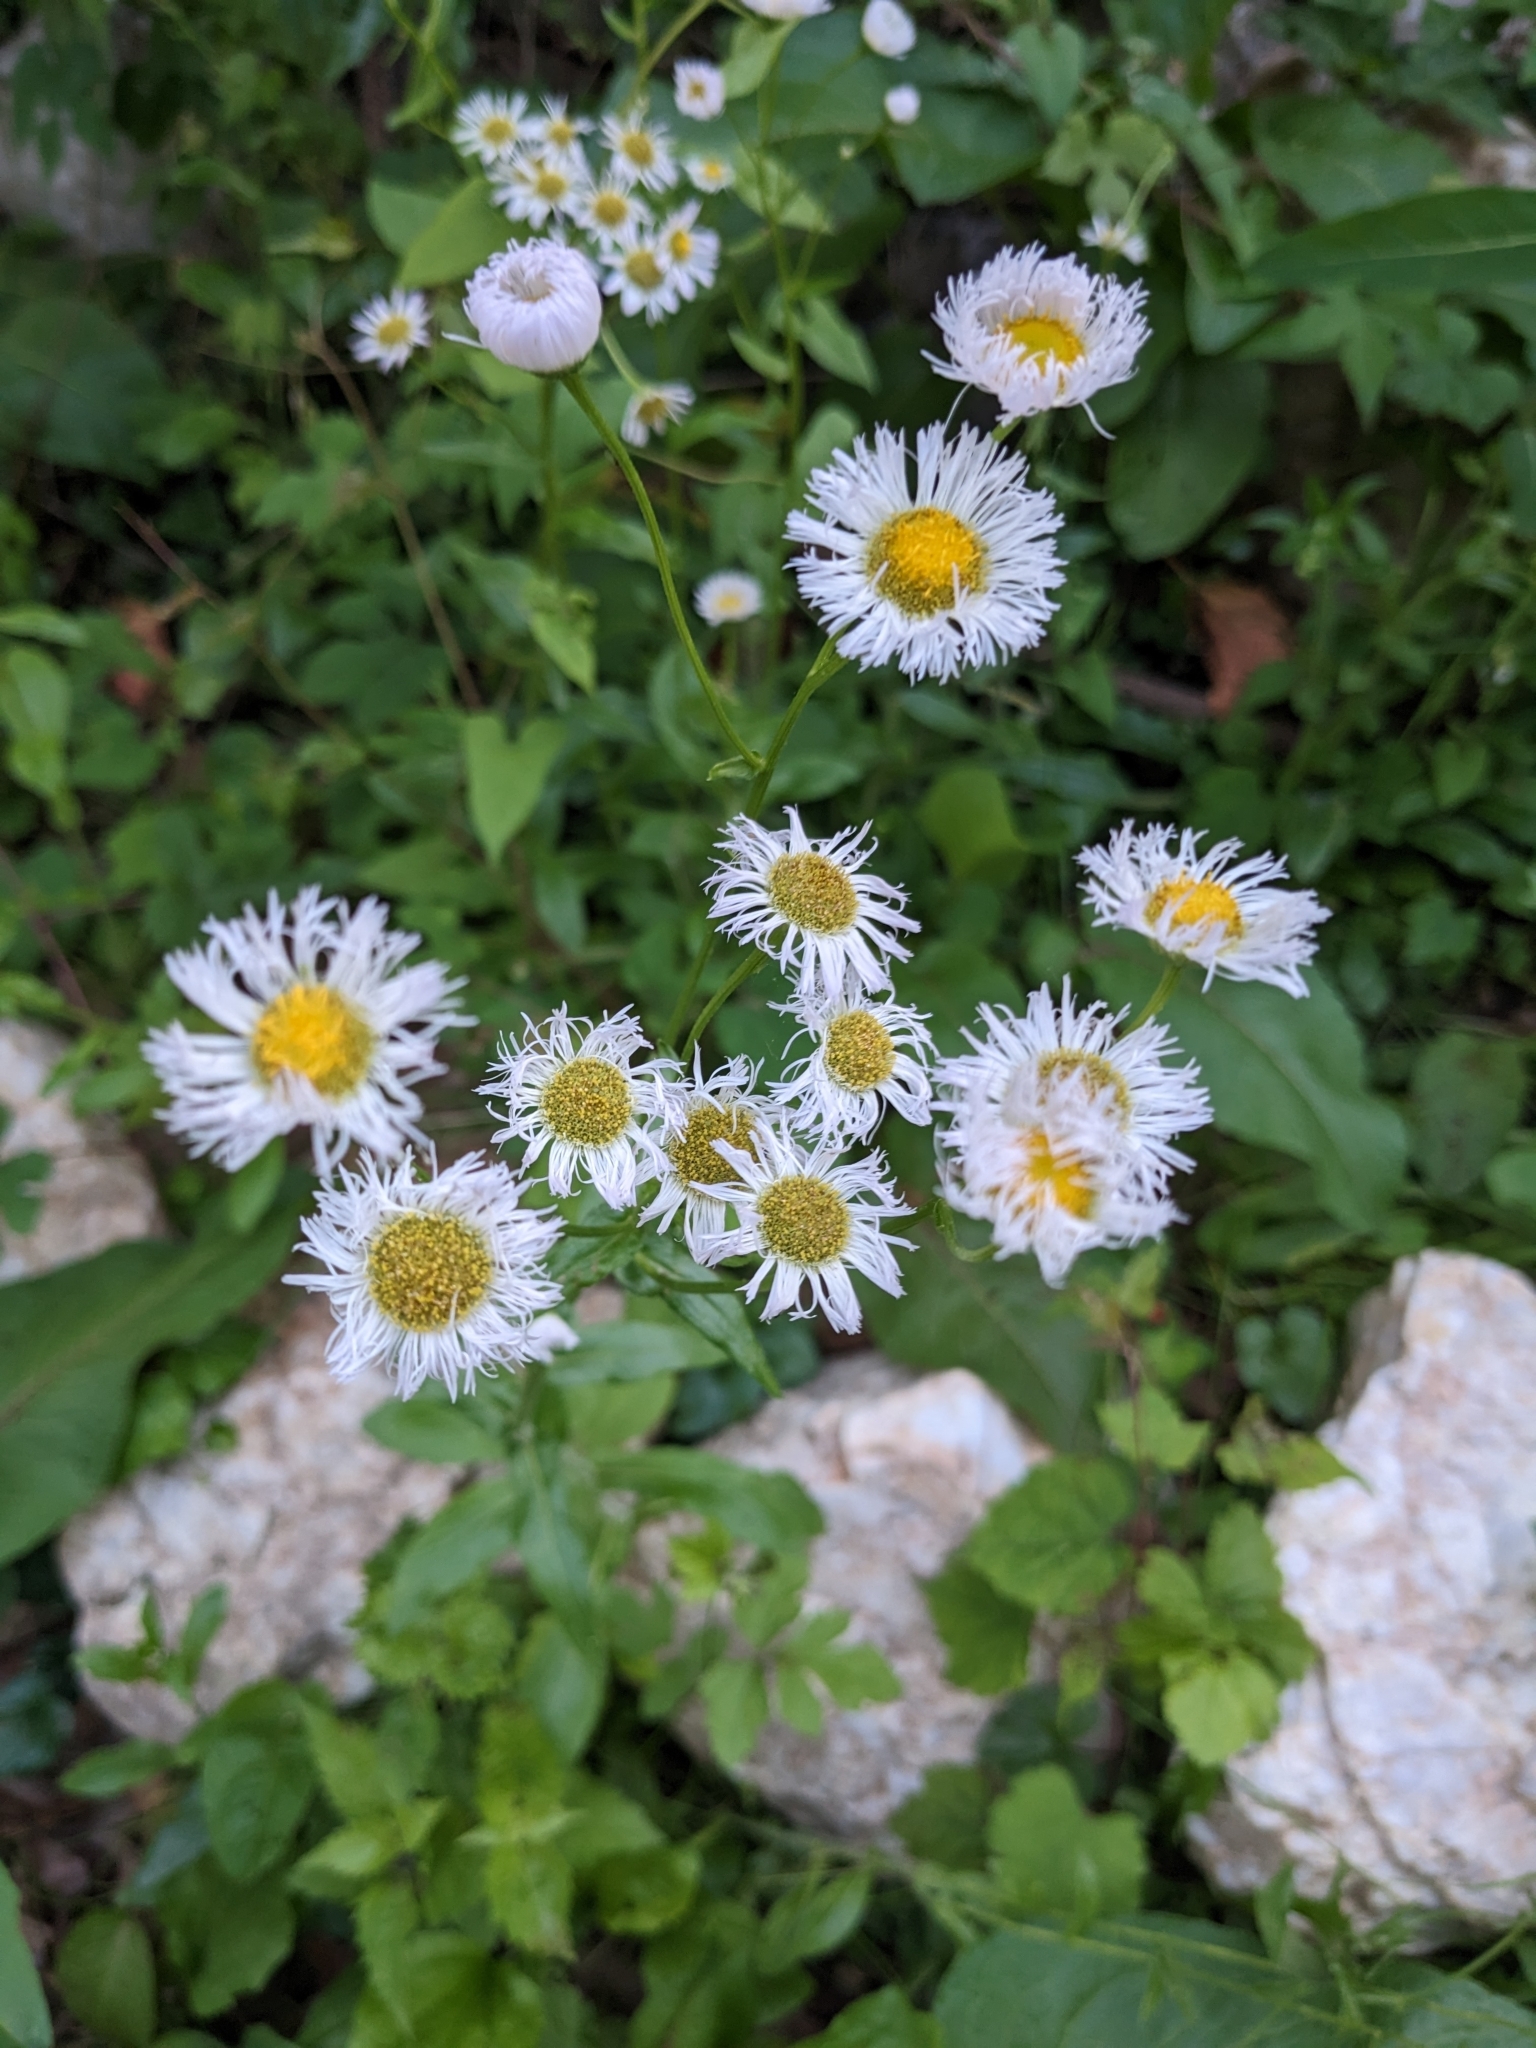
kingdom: Plantae
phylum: Tracheophyta
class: Magnoliopsida
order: Asterales
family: Asteraceae
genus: Erigeron
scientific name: Erigeron philadelphicus
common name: Robin's-plantain
